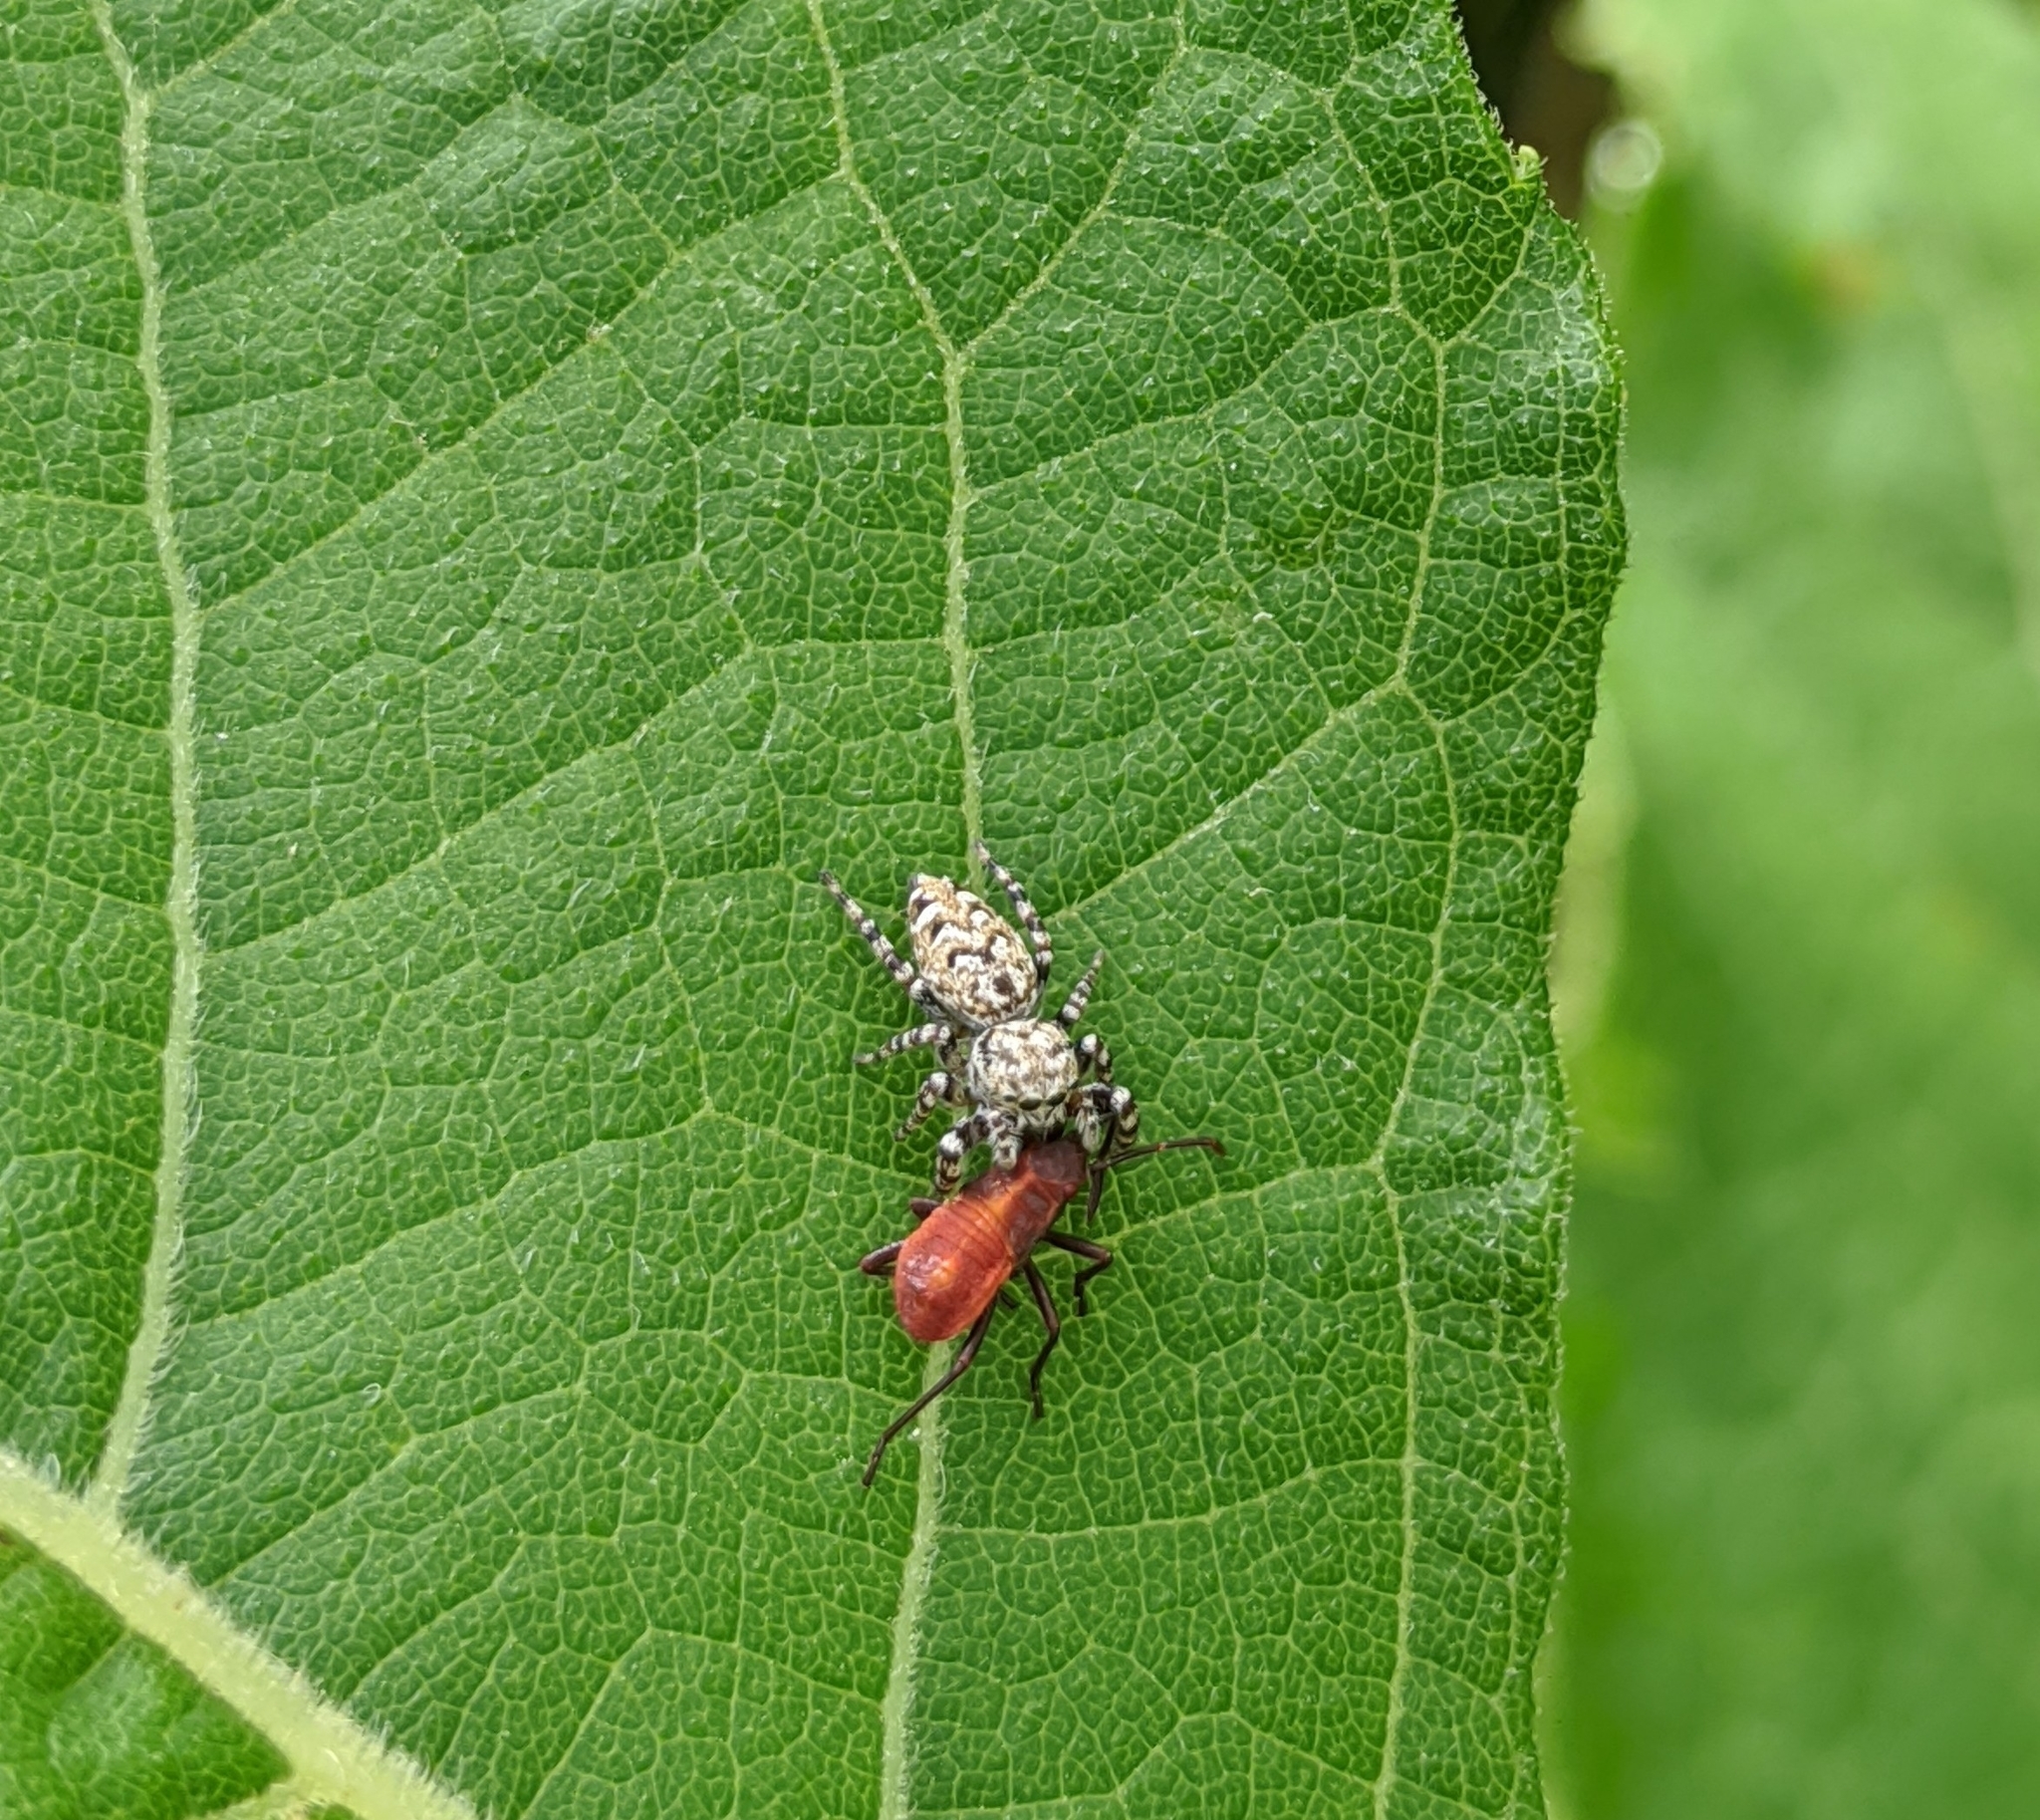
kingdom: Animalia
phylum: Arthropoda
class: Arachnida
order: Araneae
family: Salticidae
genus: Pelegrina
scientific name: Pelegrina galathea
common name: Jumping spiders
